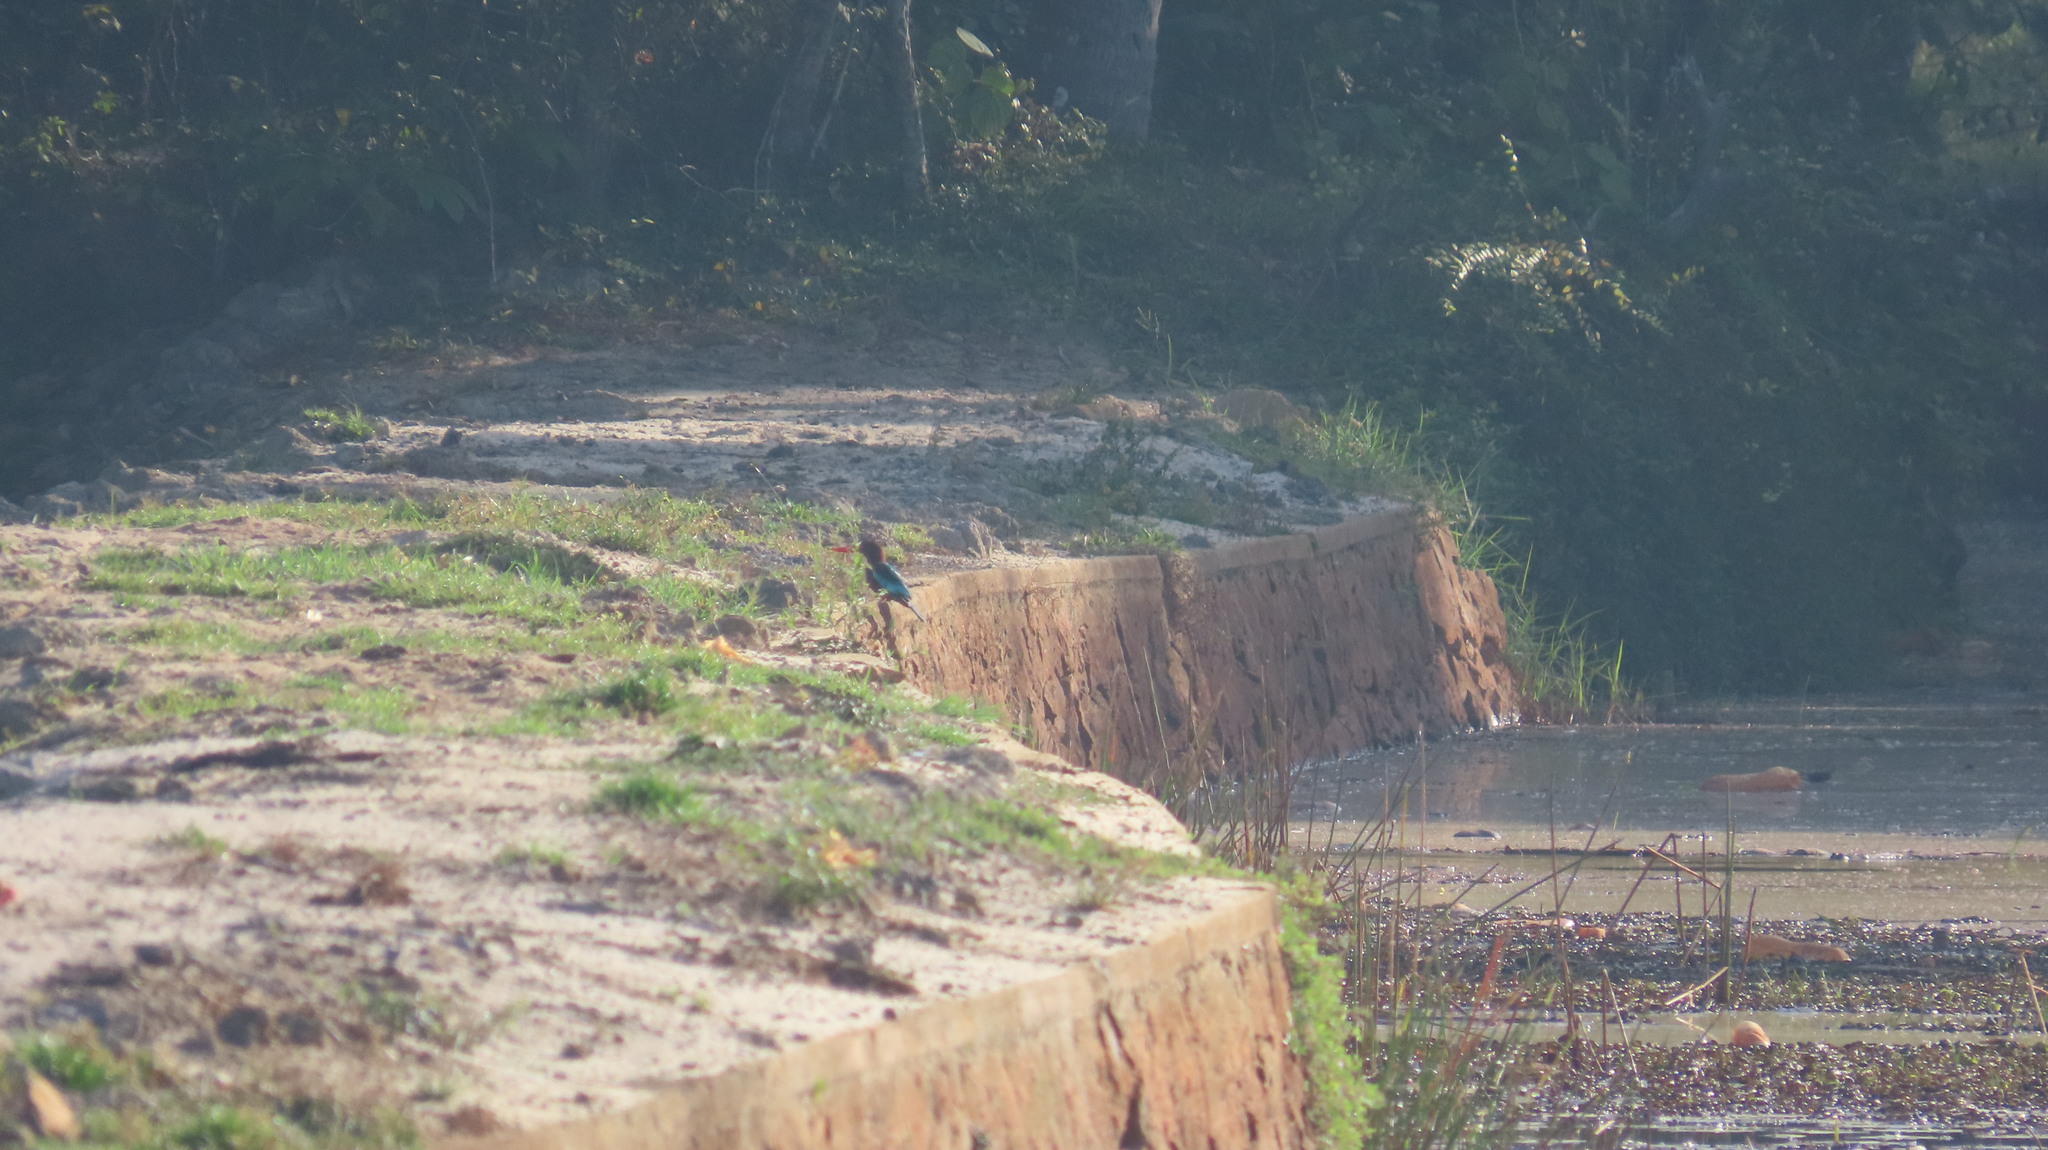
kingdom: Animalia
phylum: Chordata
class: Aves
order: Coraciiformes
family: Alcedinidae
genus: Halcyon
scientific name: Halcyon smyrnensis
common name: White-throated kingfisher
